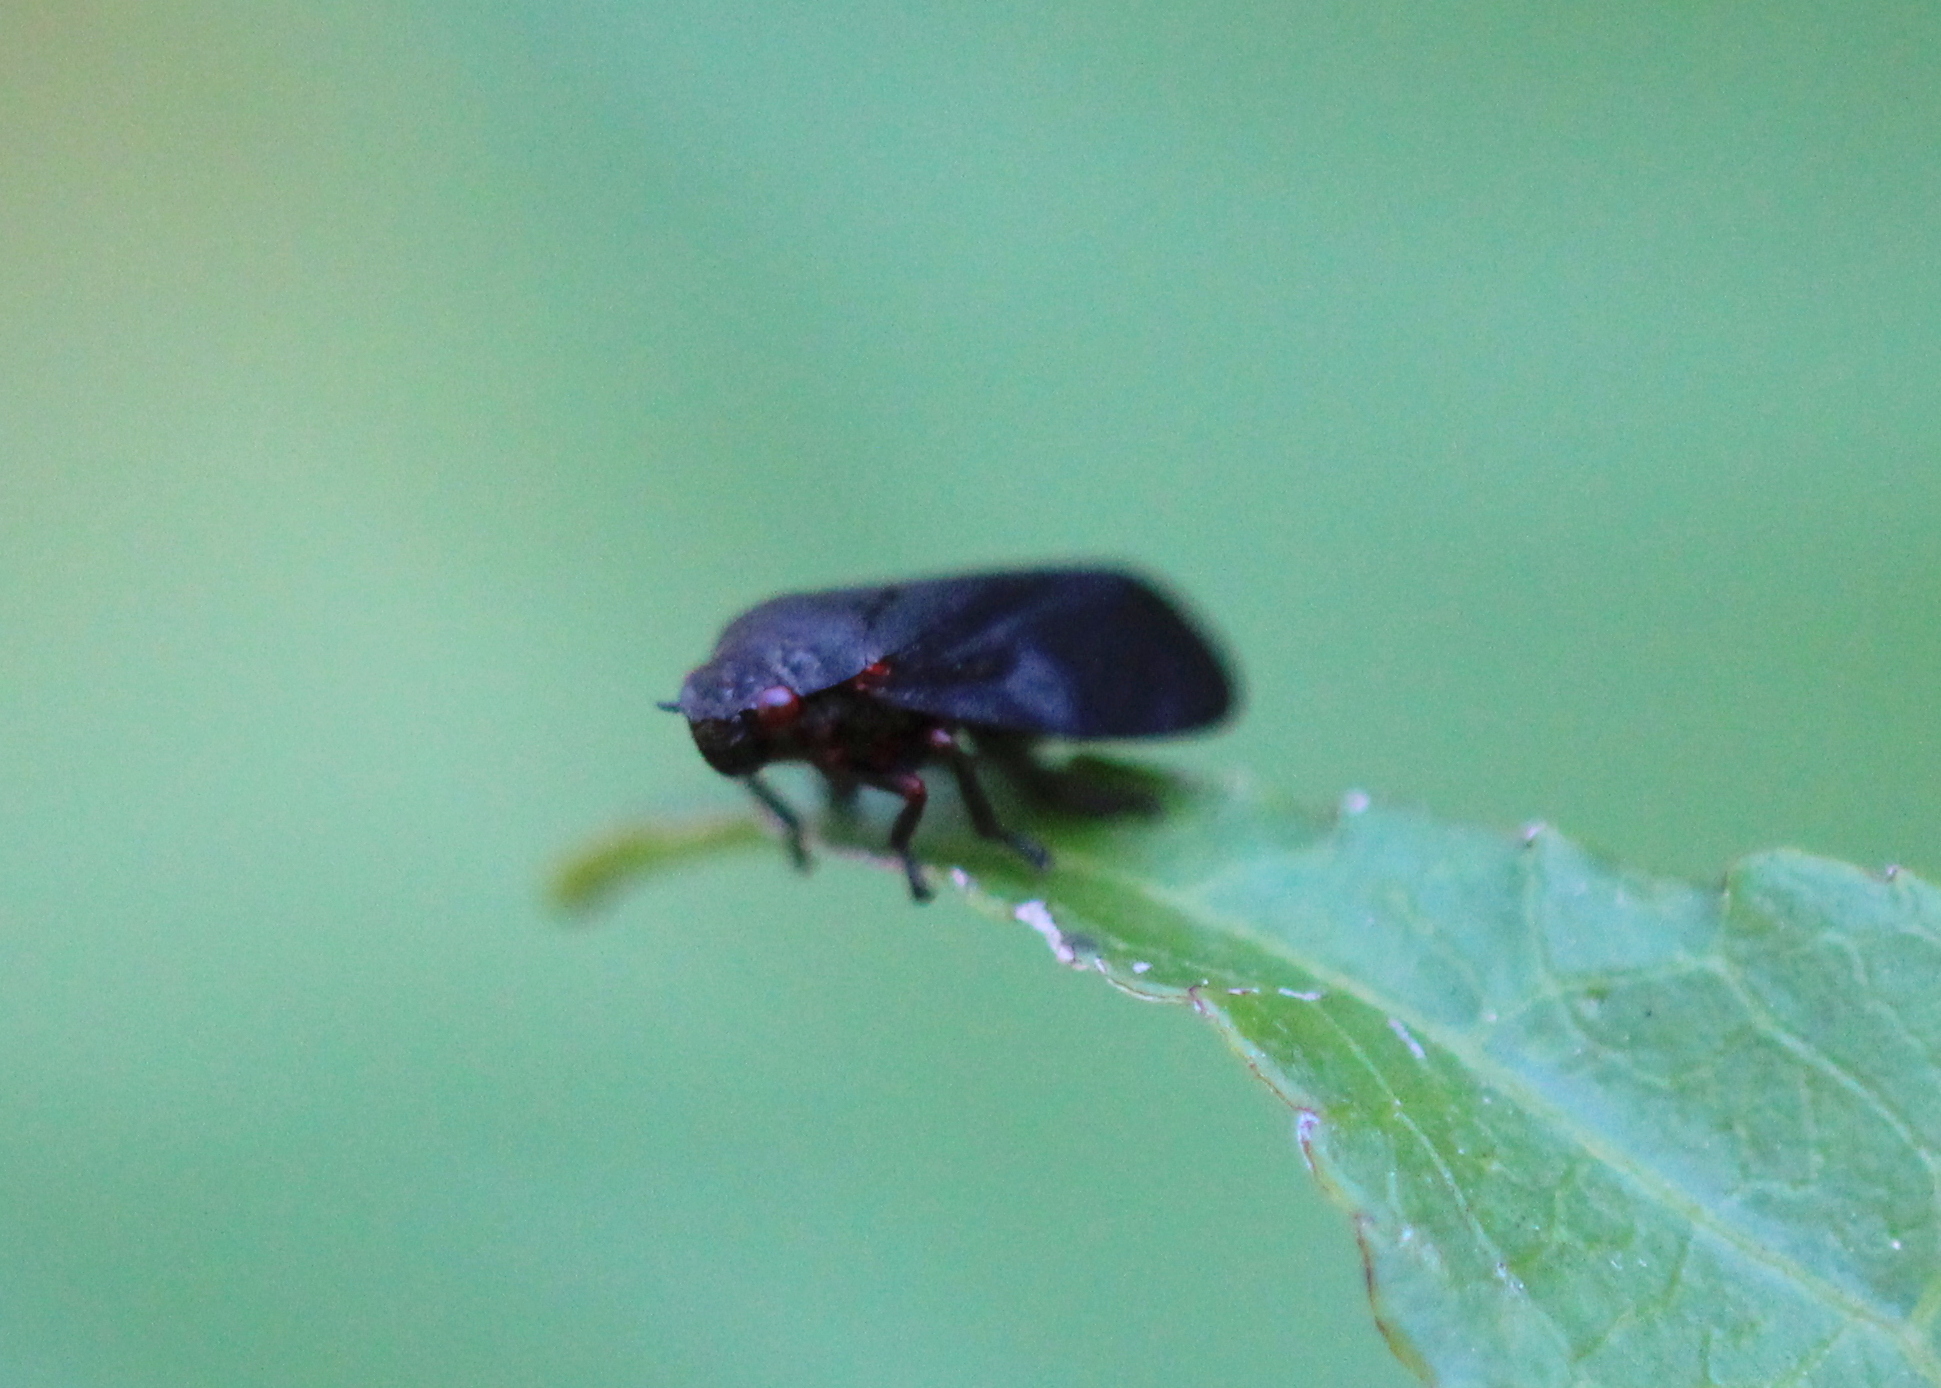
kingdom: Animalia
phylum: Arthropoda
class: Insecta
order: Hemiptera
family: Cercopidae
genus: Prosapia
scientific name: Prosapia ignipectus
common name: Black spittlebug
